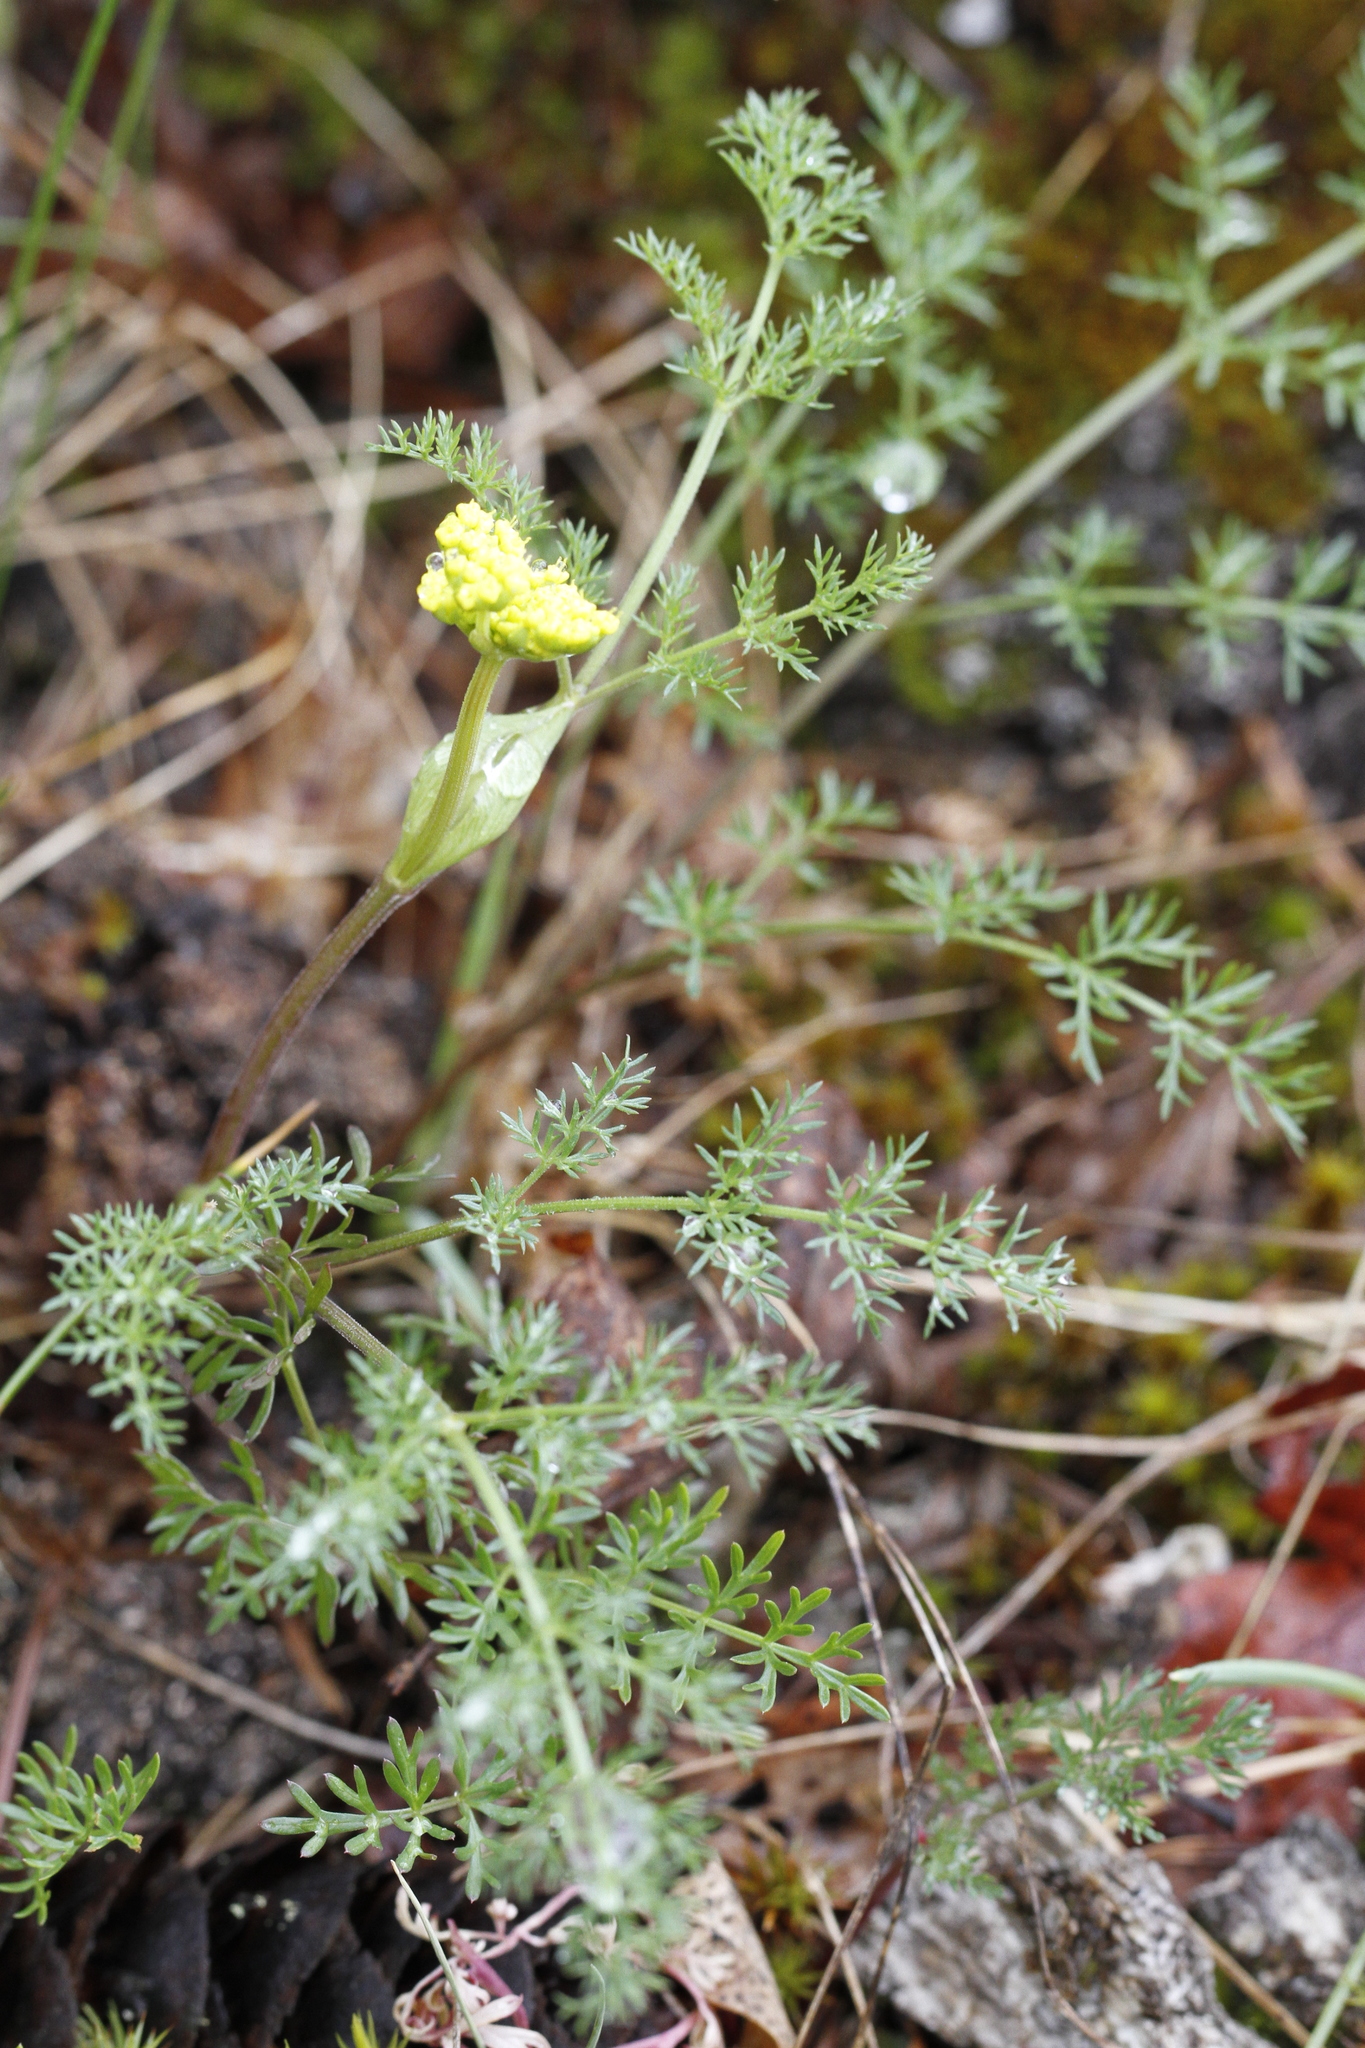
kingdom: Plantae
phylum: Tracheophyta
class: Magnoliopsida
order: Apiales
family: Apiaceae
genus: Lomatium
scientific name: Lomatium utriculatum
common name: Fine-leaf desert-parsley
